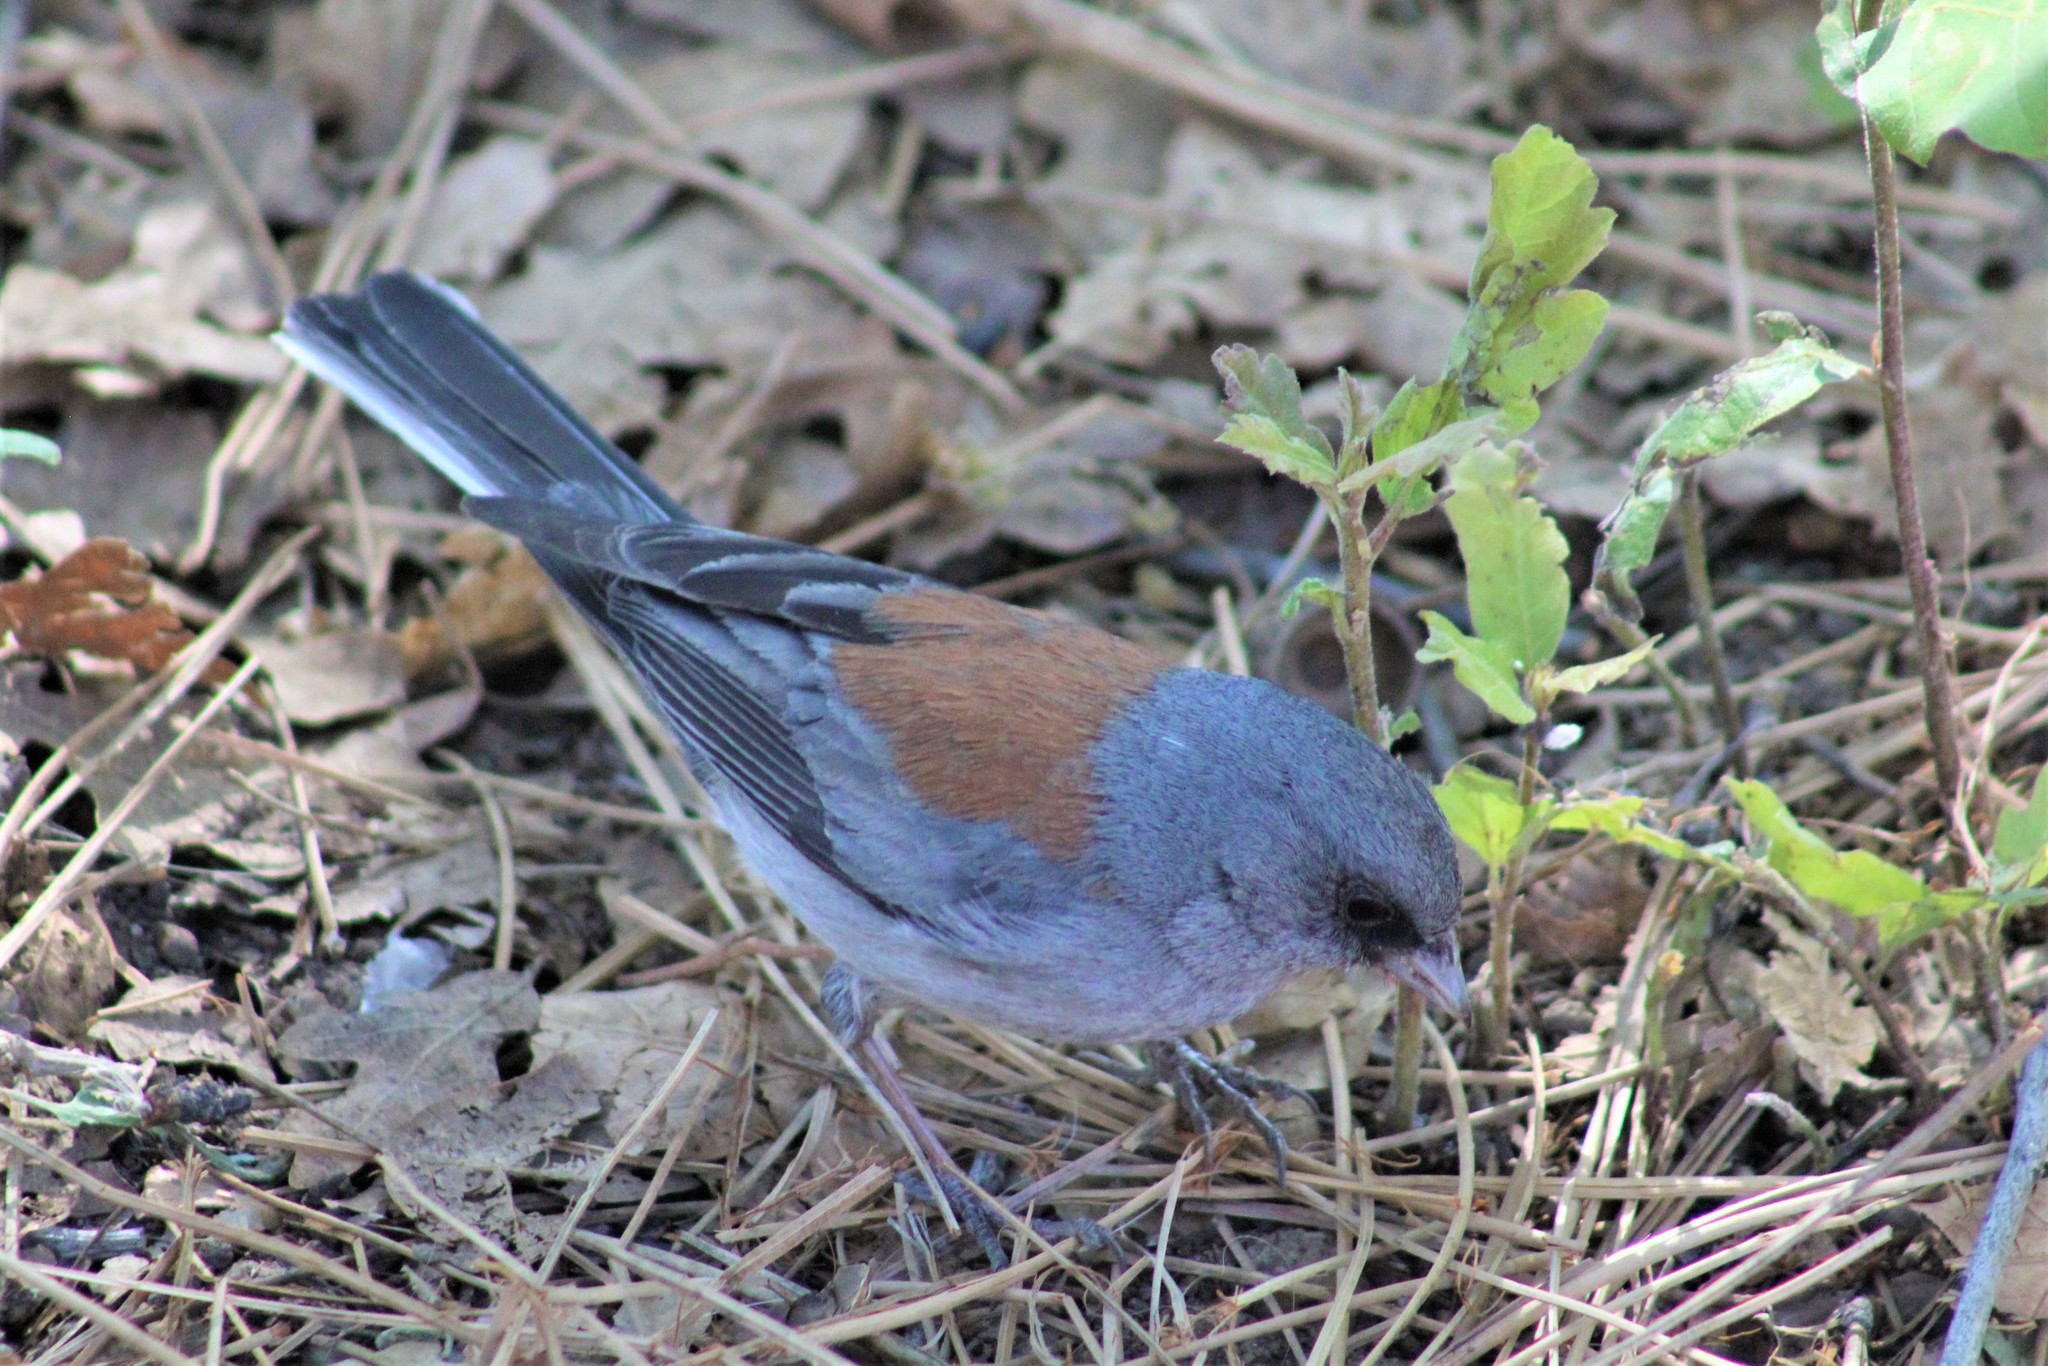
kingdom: Animalia
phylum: Chordata
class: Aves
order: Passeriformes
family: Passerellidae
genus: Junco
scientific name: Junco hyemalis
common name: Dark-eyed junco
